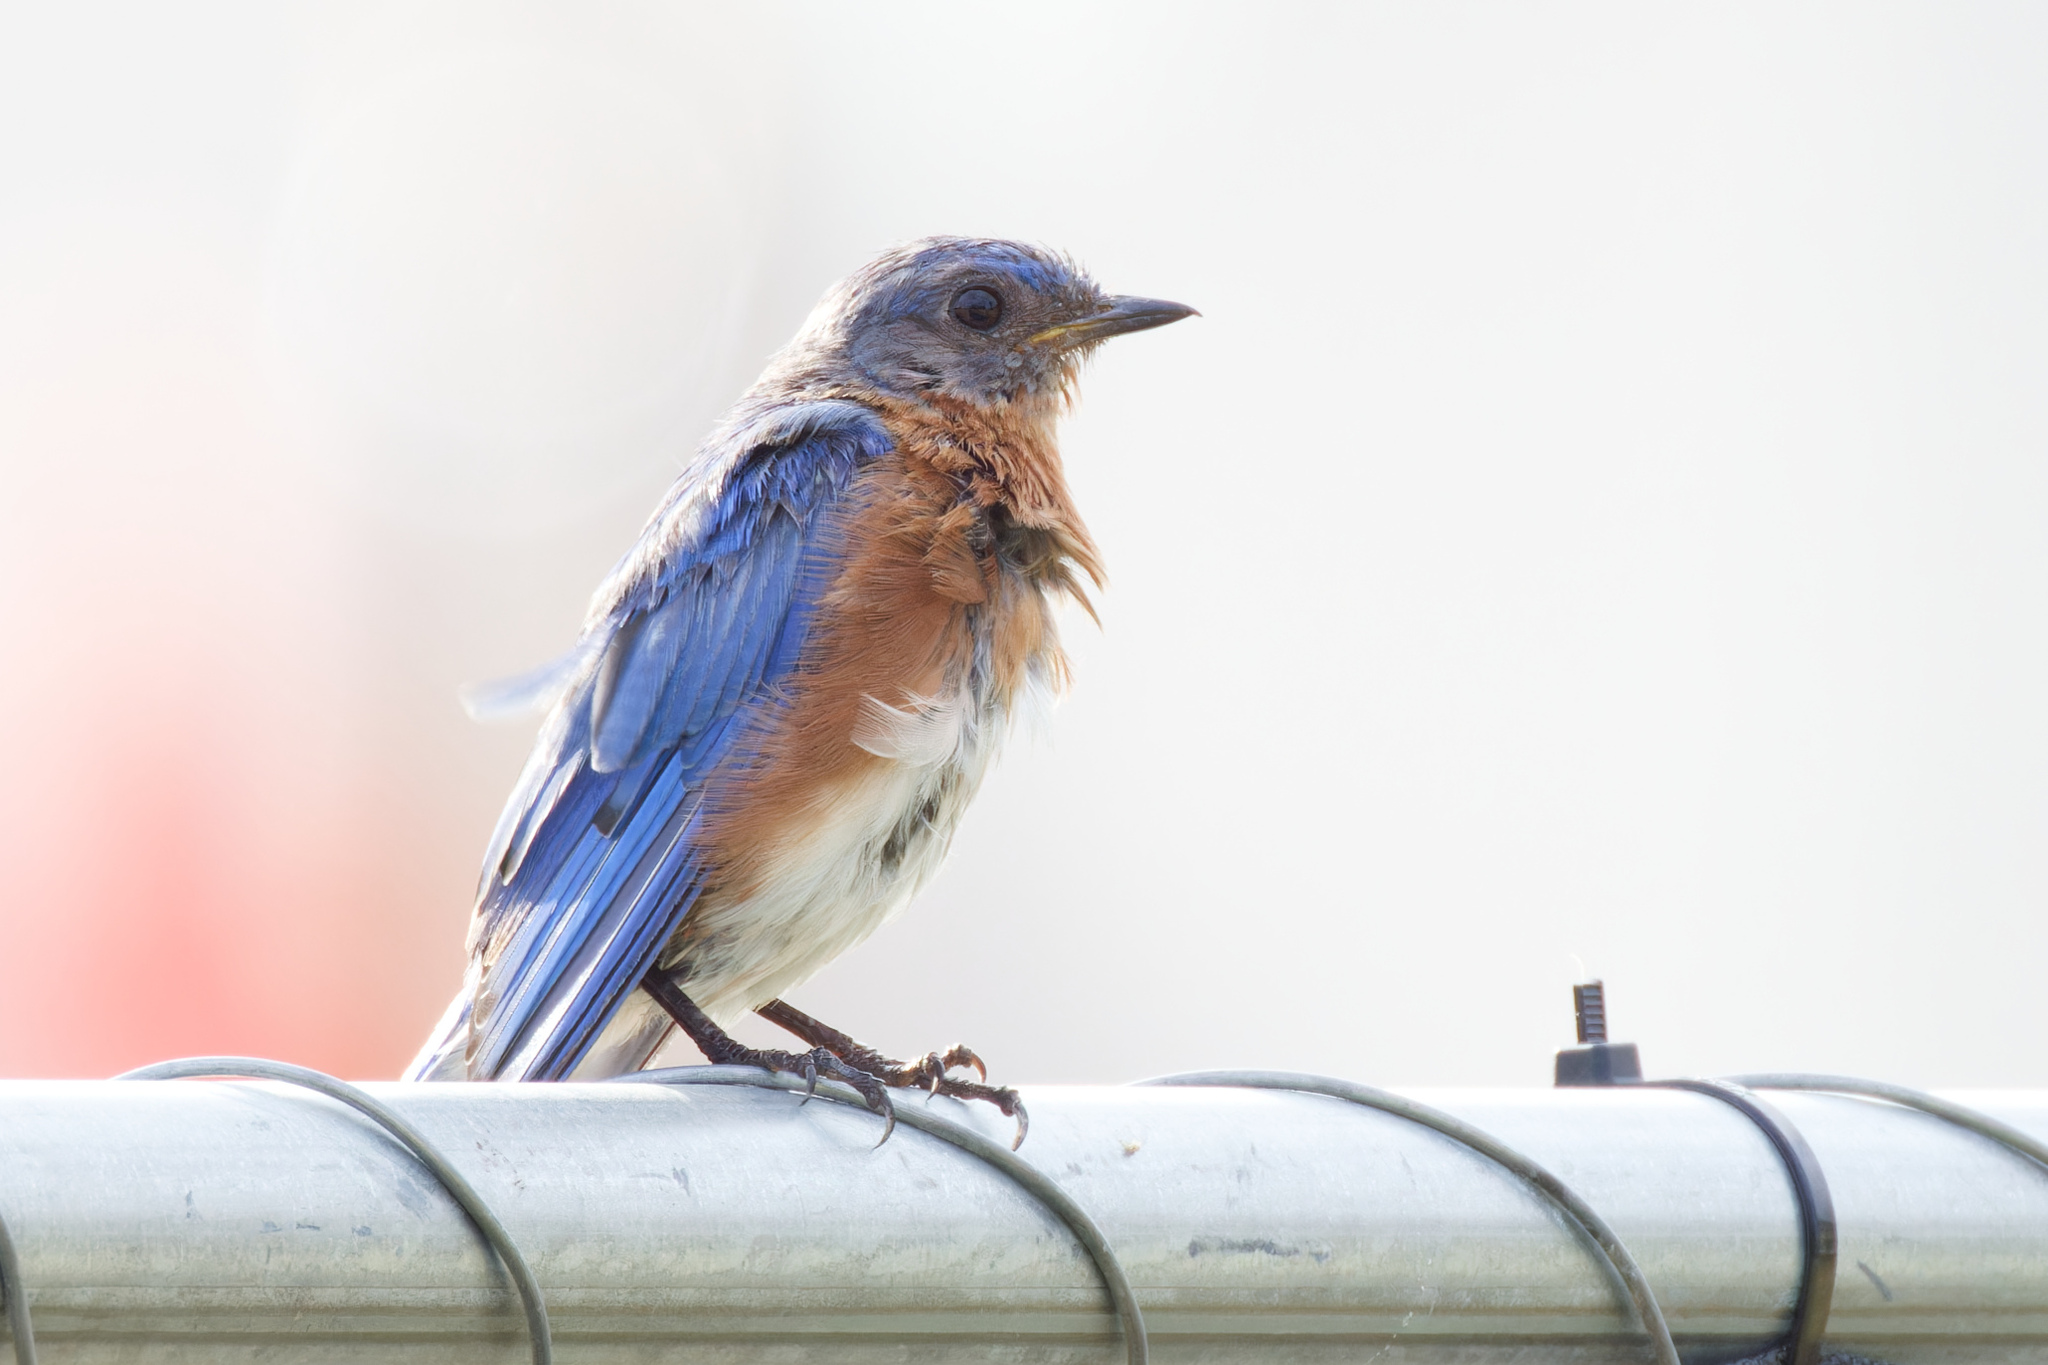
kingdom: Animalia
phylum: Chordata
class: Aves
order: Passeriformes
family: Turdidae
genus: Sialia
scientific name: Sialia sialis
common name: Eastern bluebird
